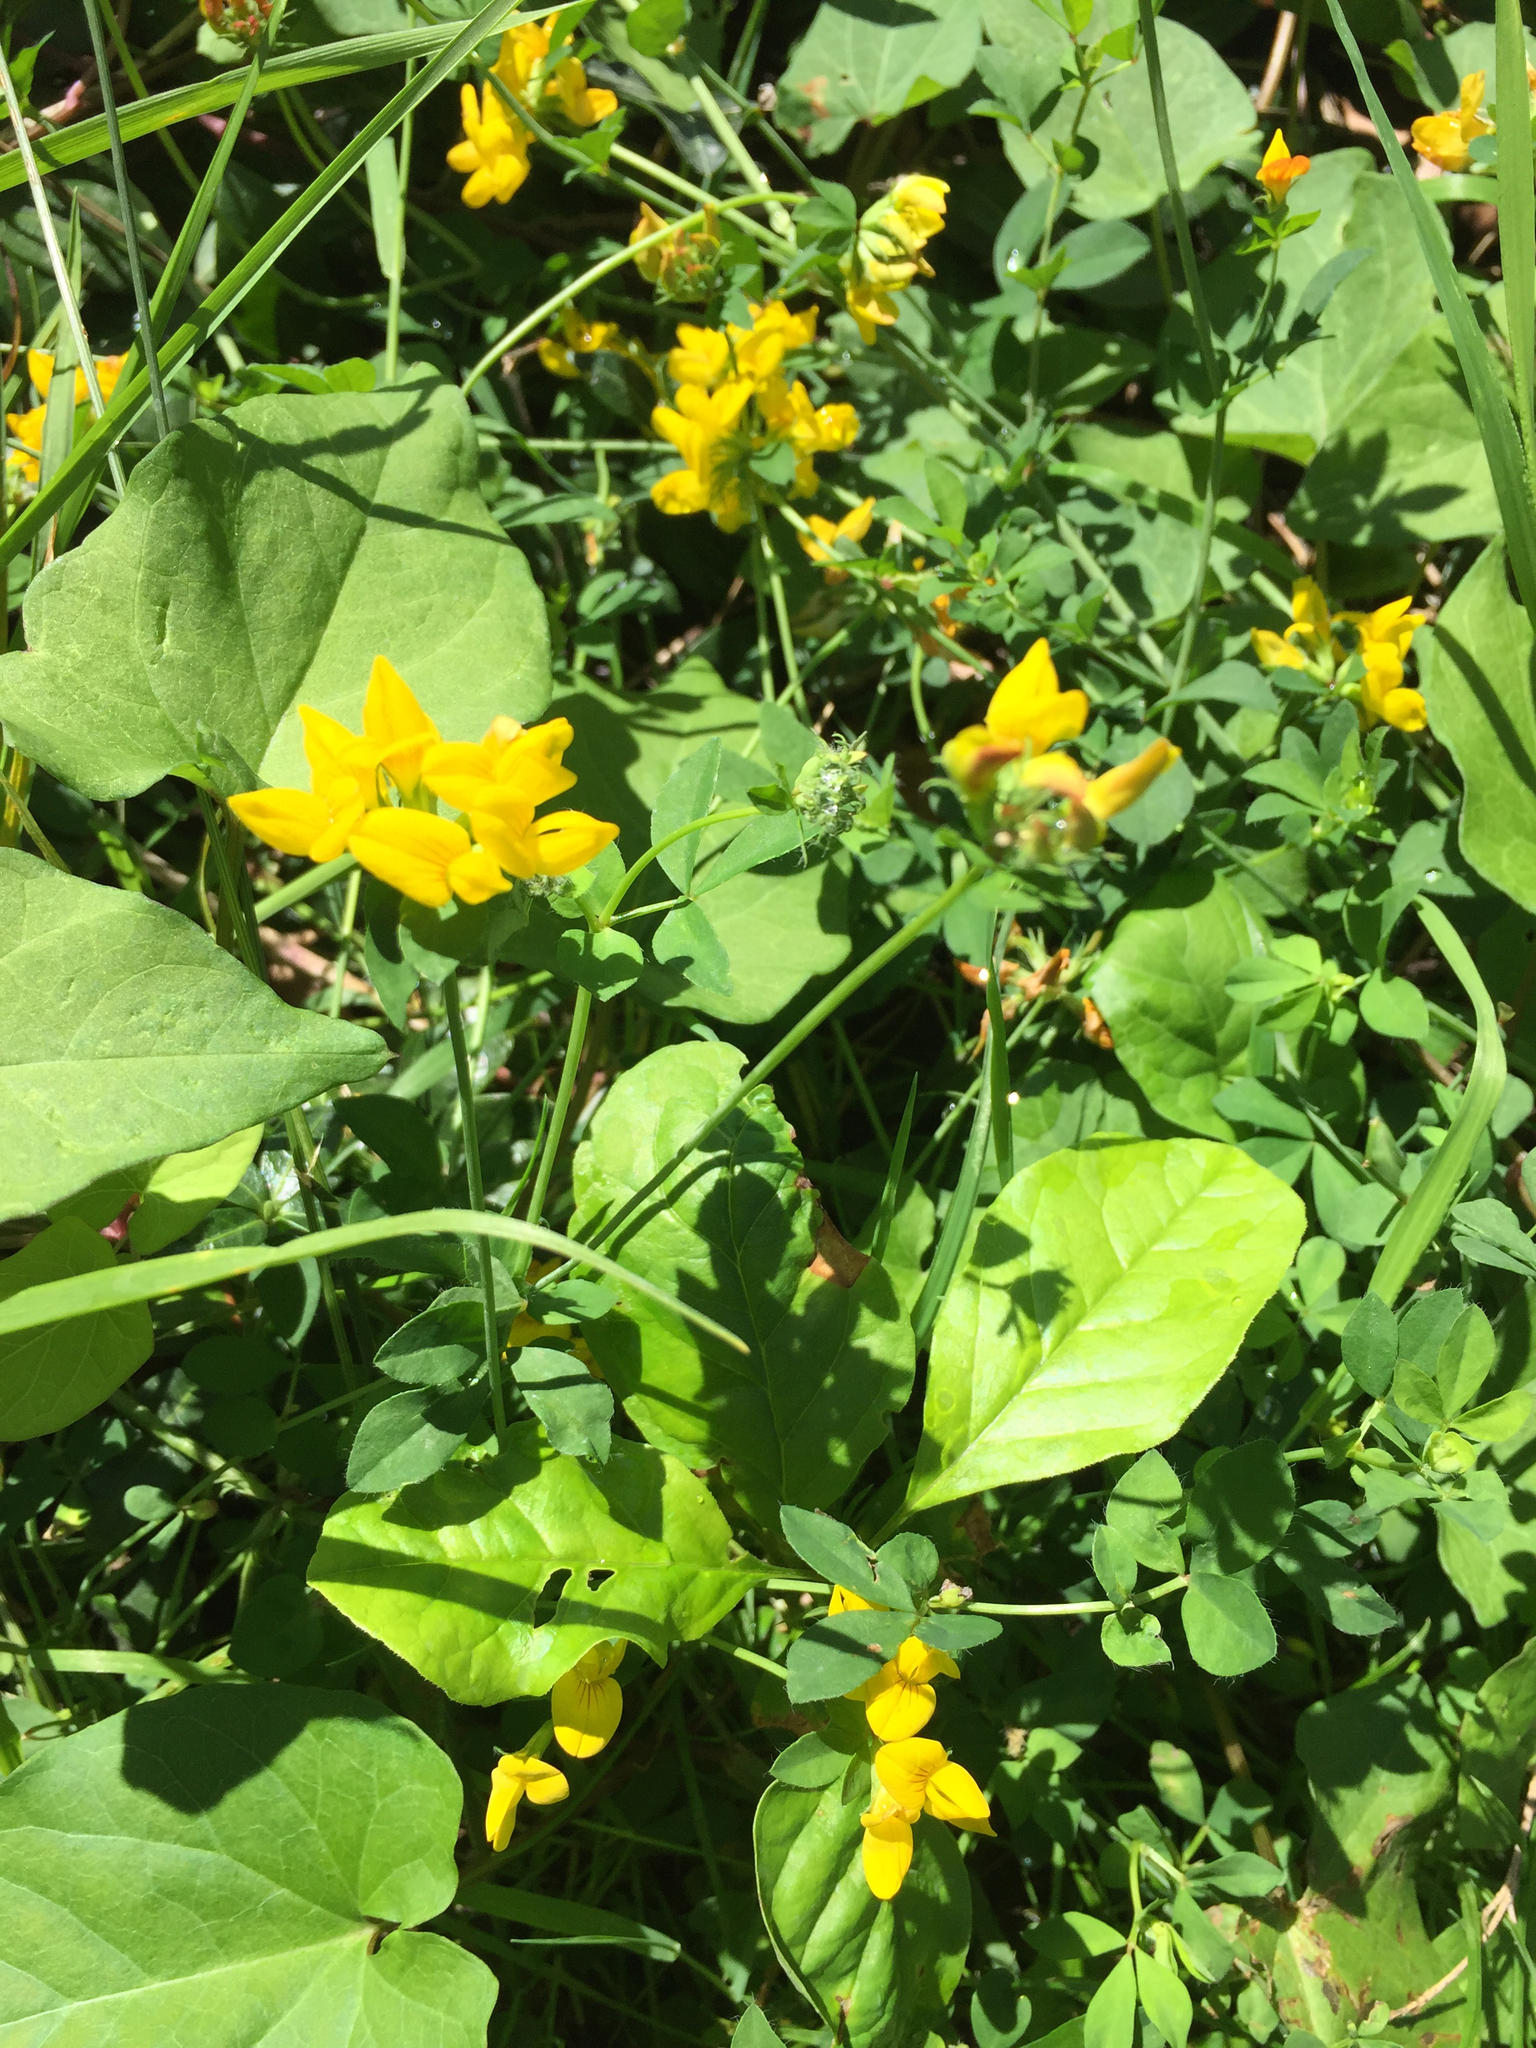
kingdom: Plantae
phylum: Tracheophyta
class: Magnoliopsida
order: Fabales
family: Fabaceae
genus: Lotus
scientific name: Lotus corniculatus
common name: Common bird's-foot-trefoil
